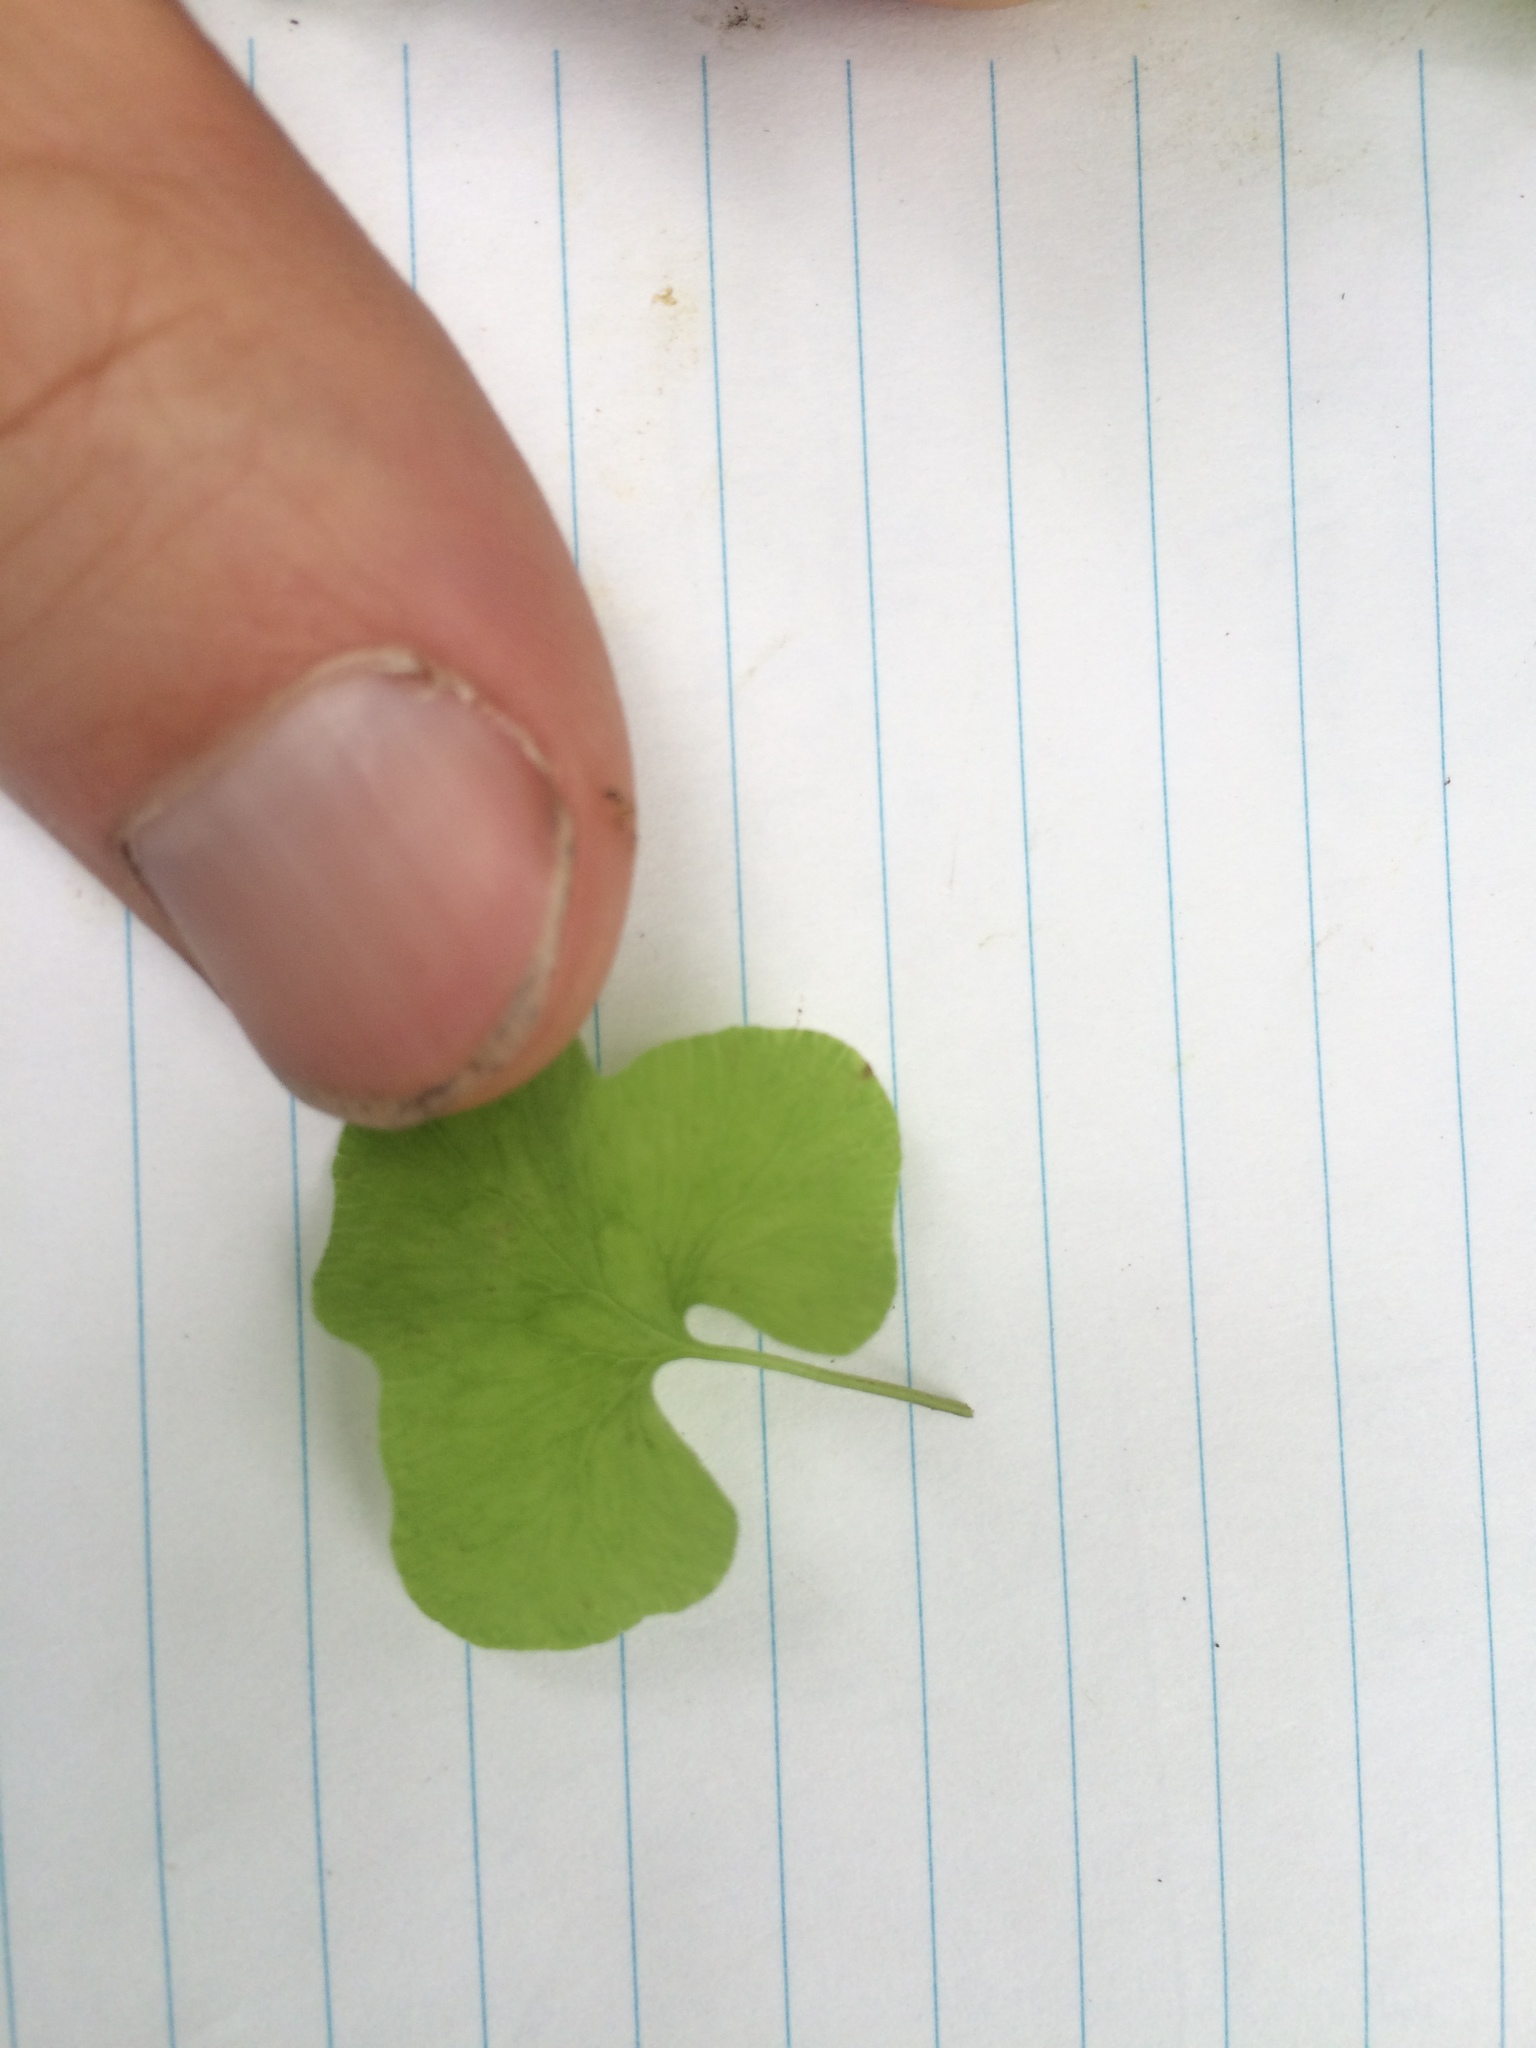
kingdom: Plantae
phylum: Tracheophyta
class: Polypodiopsida
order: Polypodiales
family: Onocleaceae
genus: Onoclea
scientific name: Onoclea sensibilis
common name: Sensitive fern
